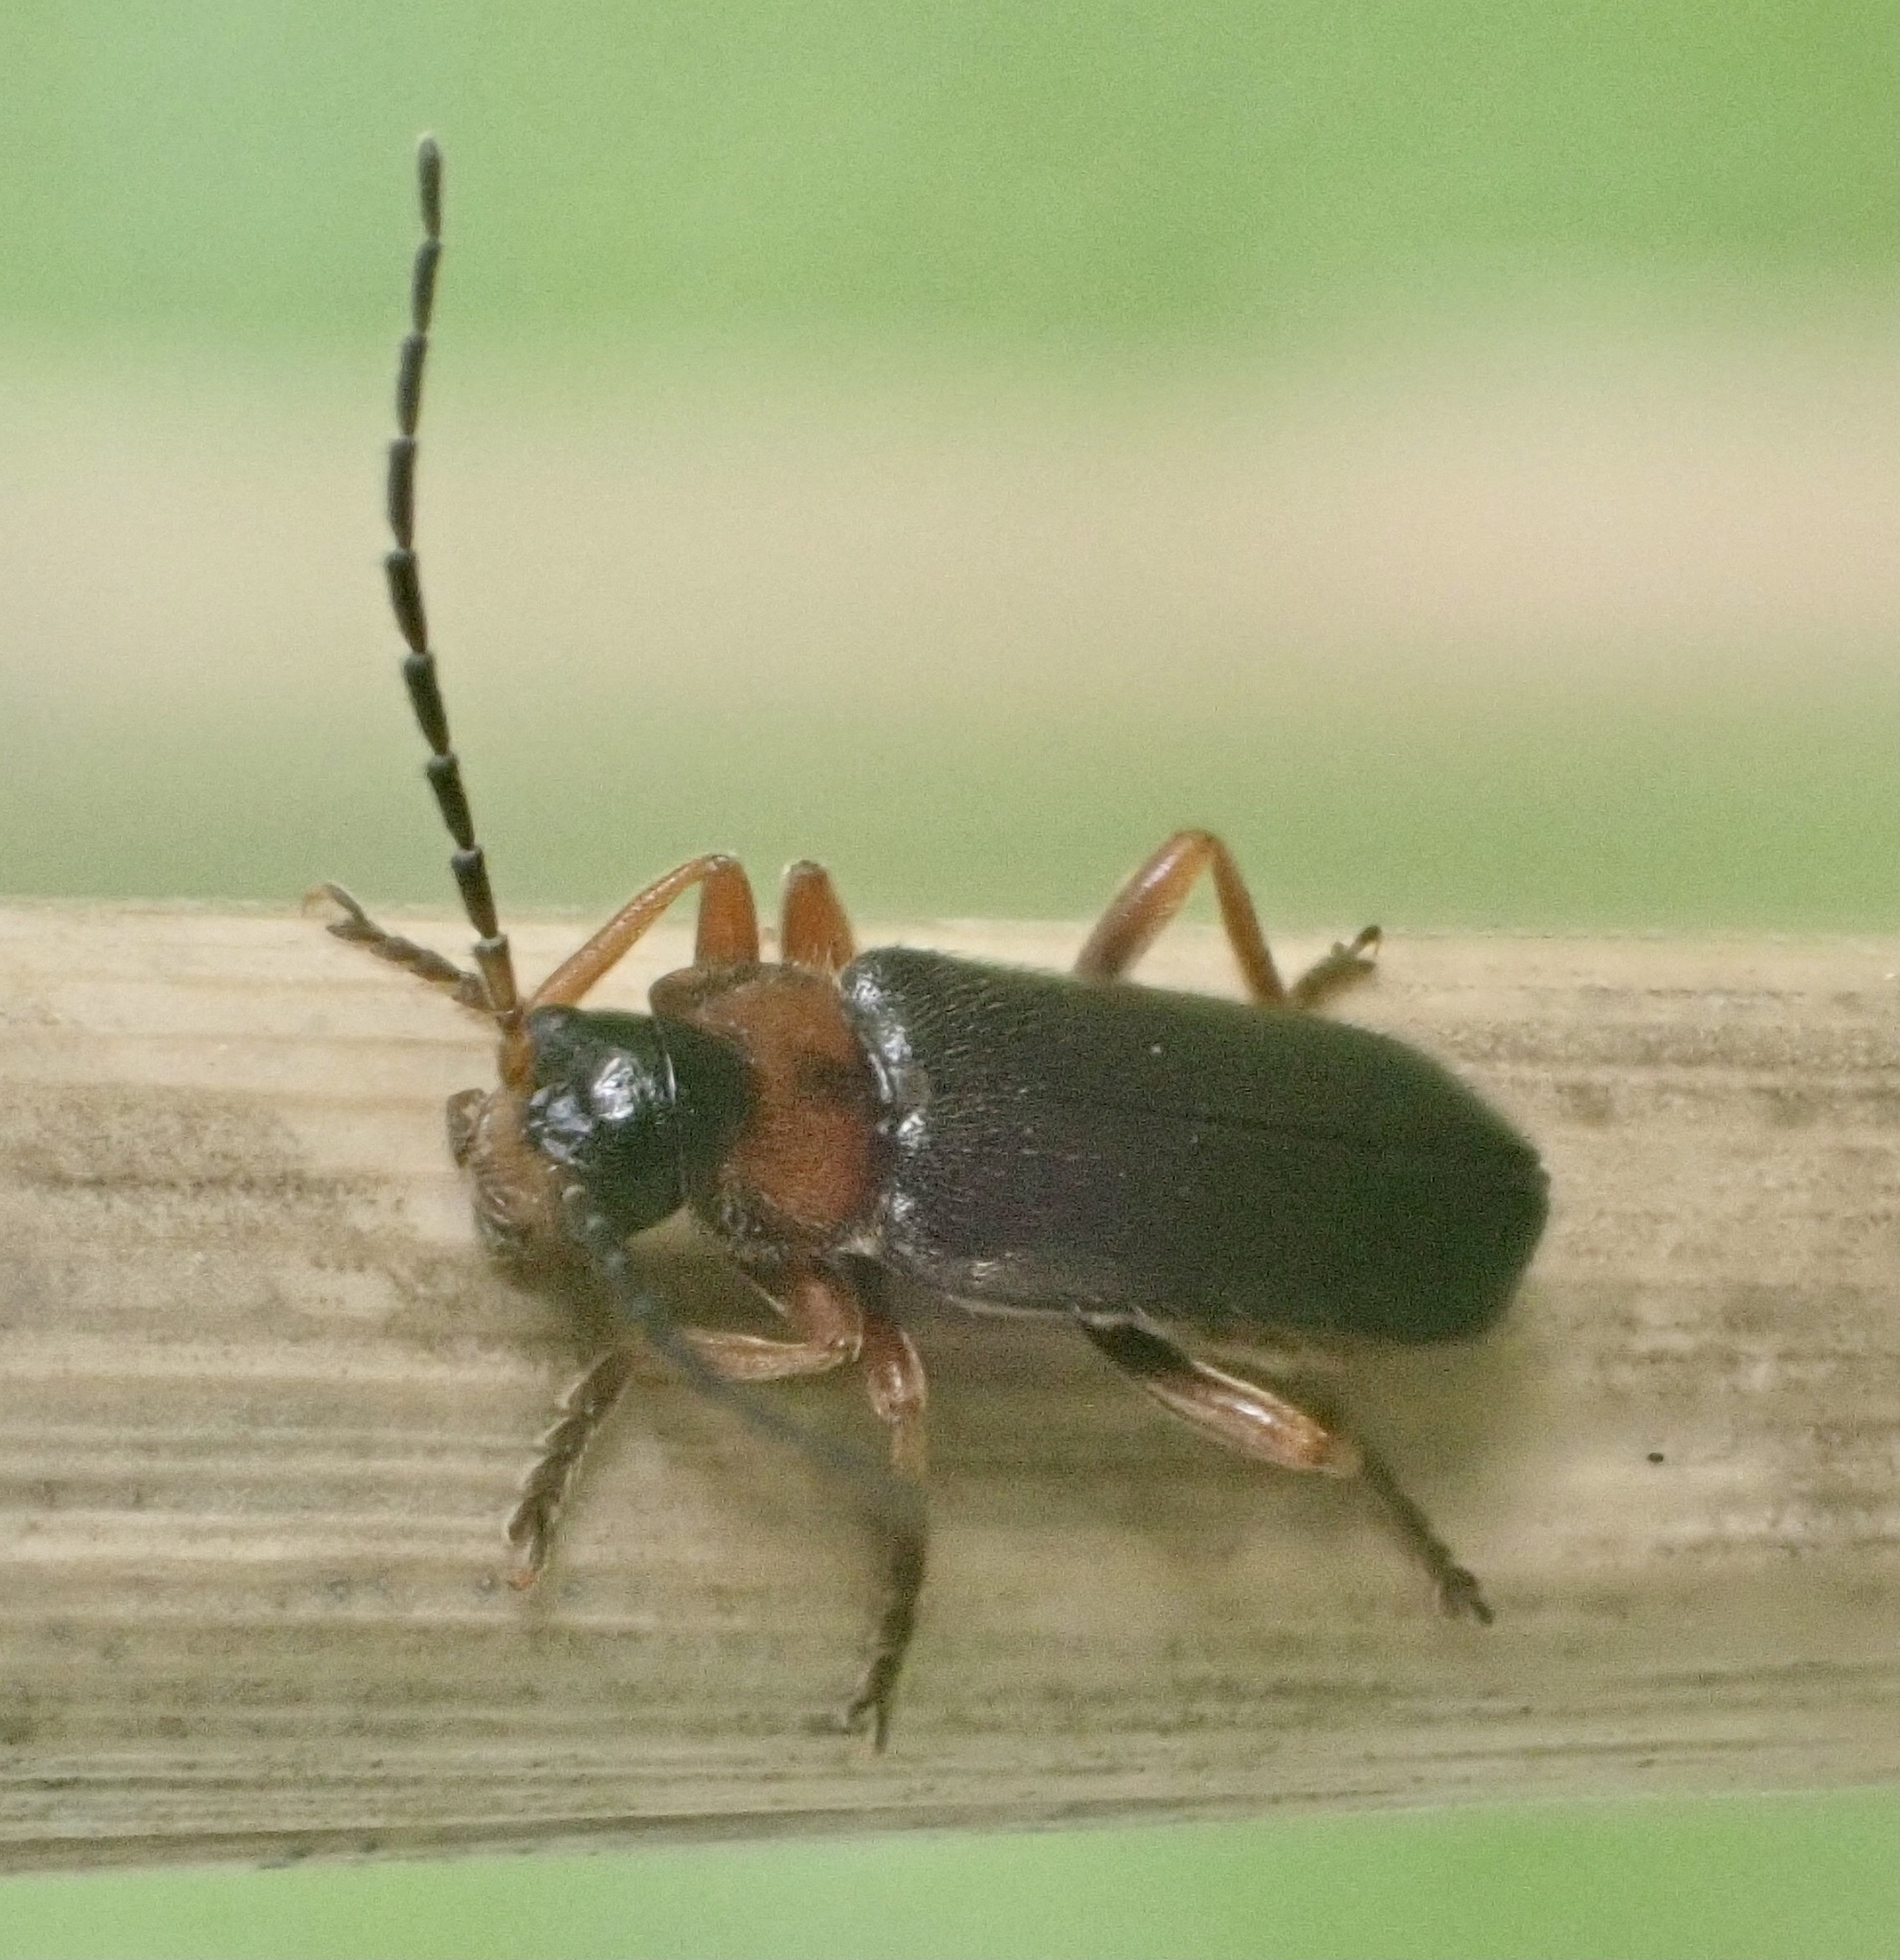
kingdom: Animalia
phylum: Arthropoda
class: Insecta
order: Coleoptera
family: Cantharidae
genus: Cantharis
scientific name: Cantharis flavilabris
